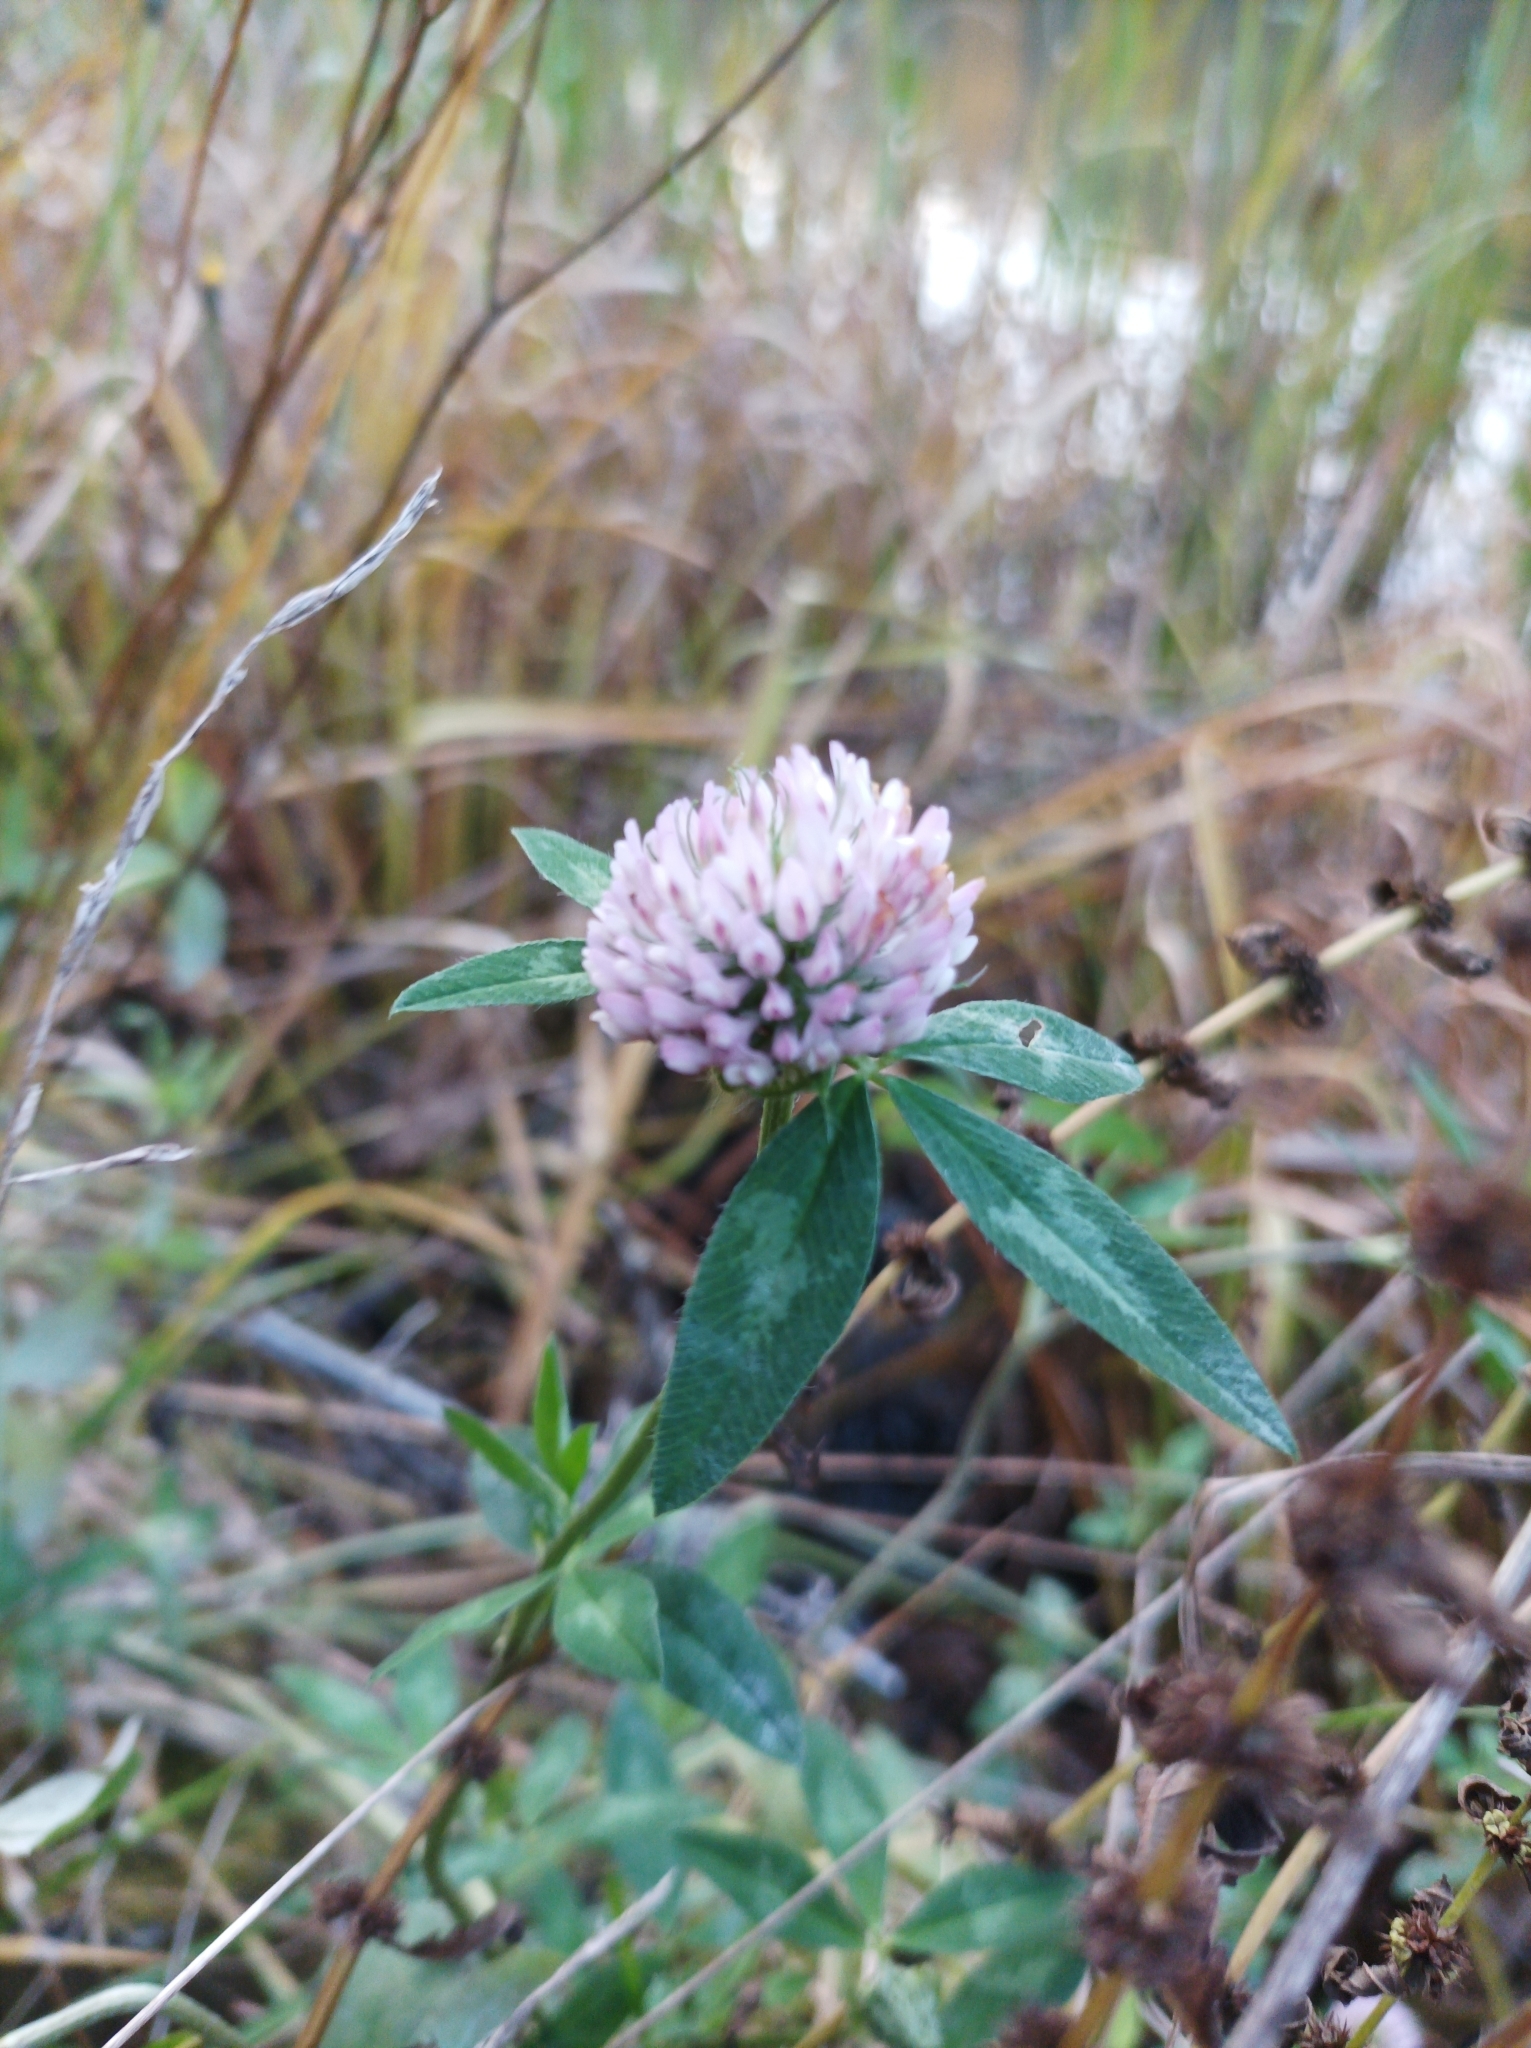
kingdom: Plantae
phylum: Tracheophyta
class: Magnoliopsida
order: Fabales
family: Fabaceae
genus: Trifolium
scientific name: Trifolium pratense
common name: Red clover
